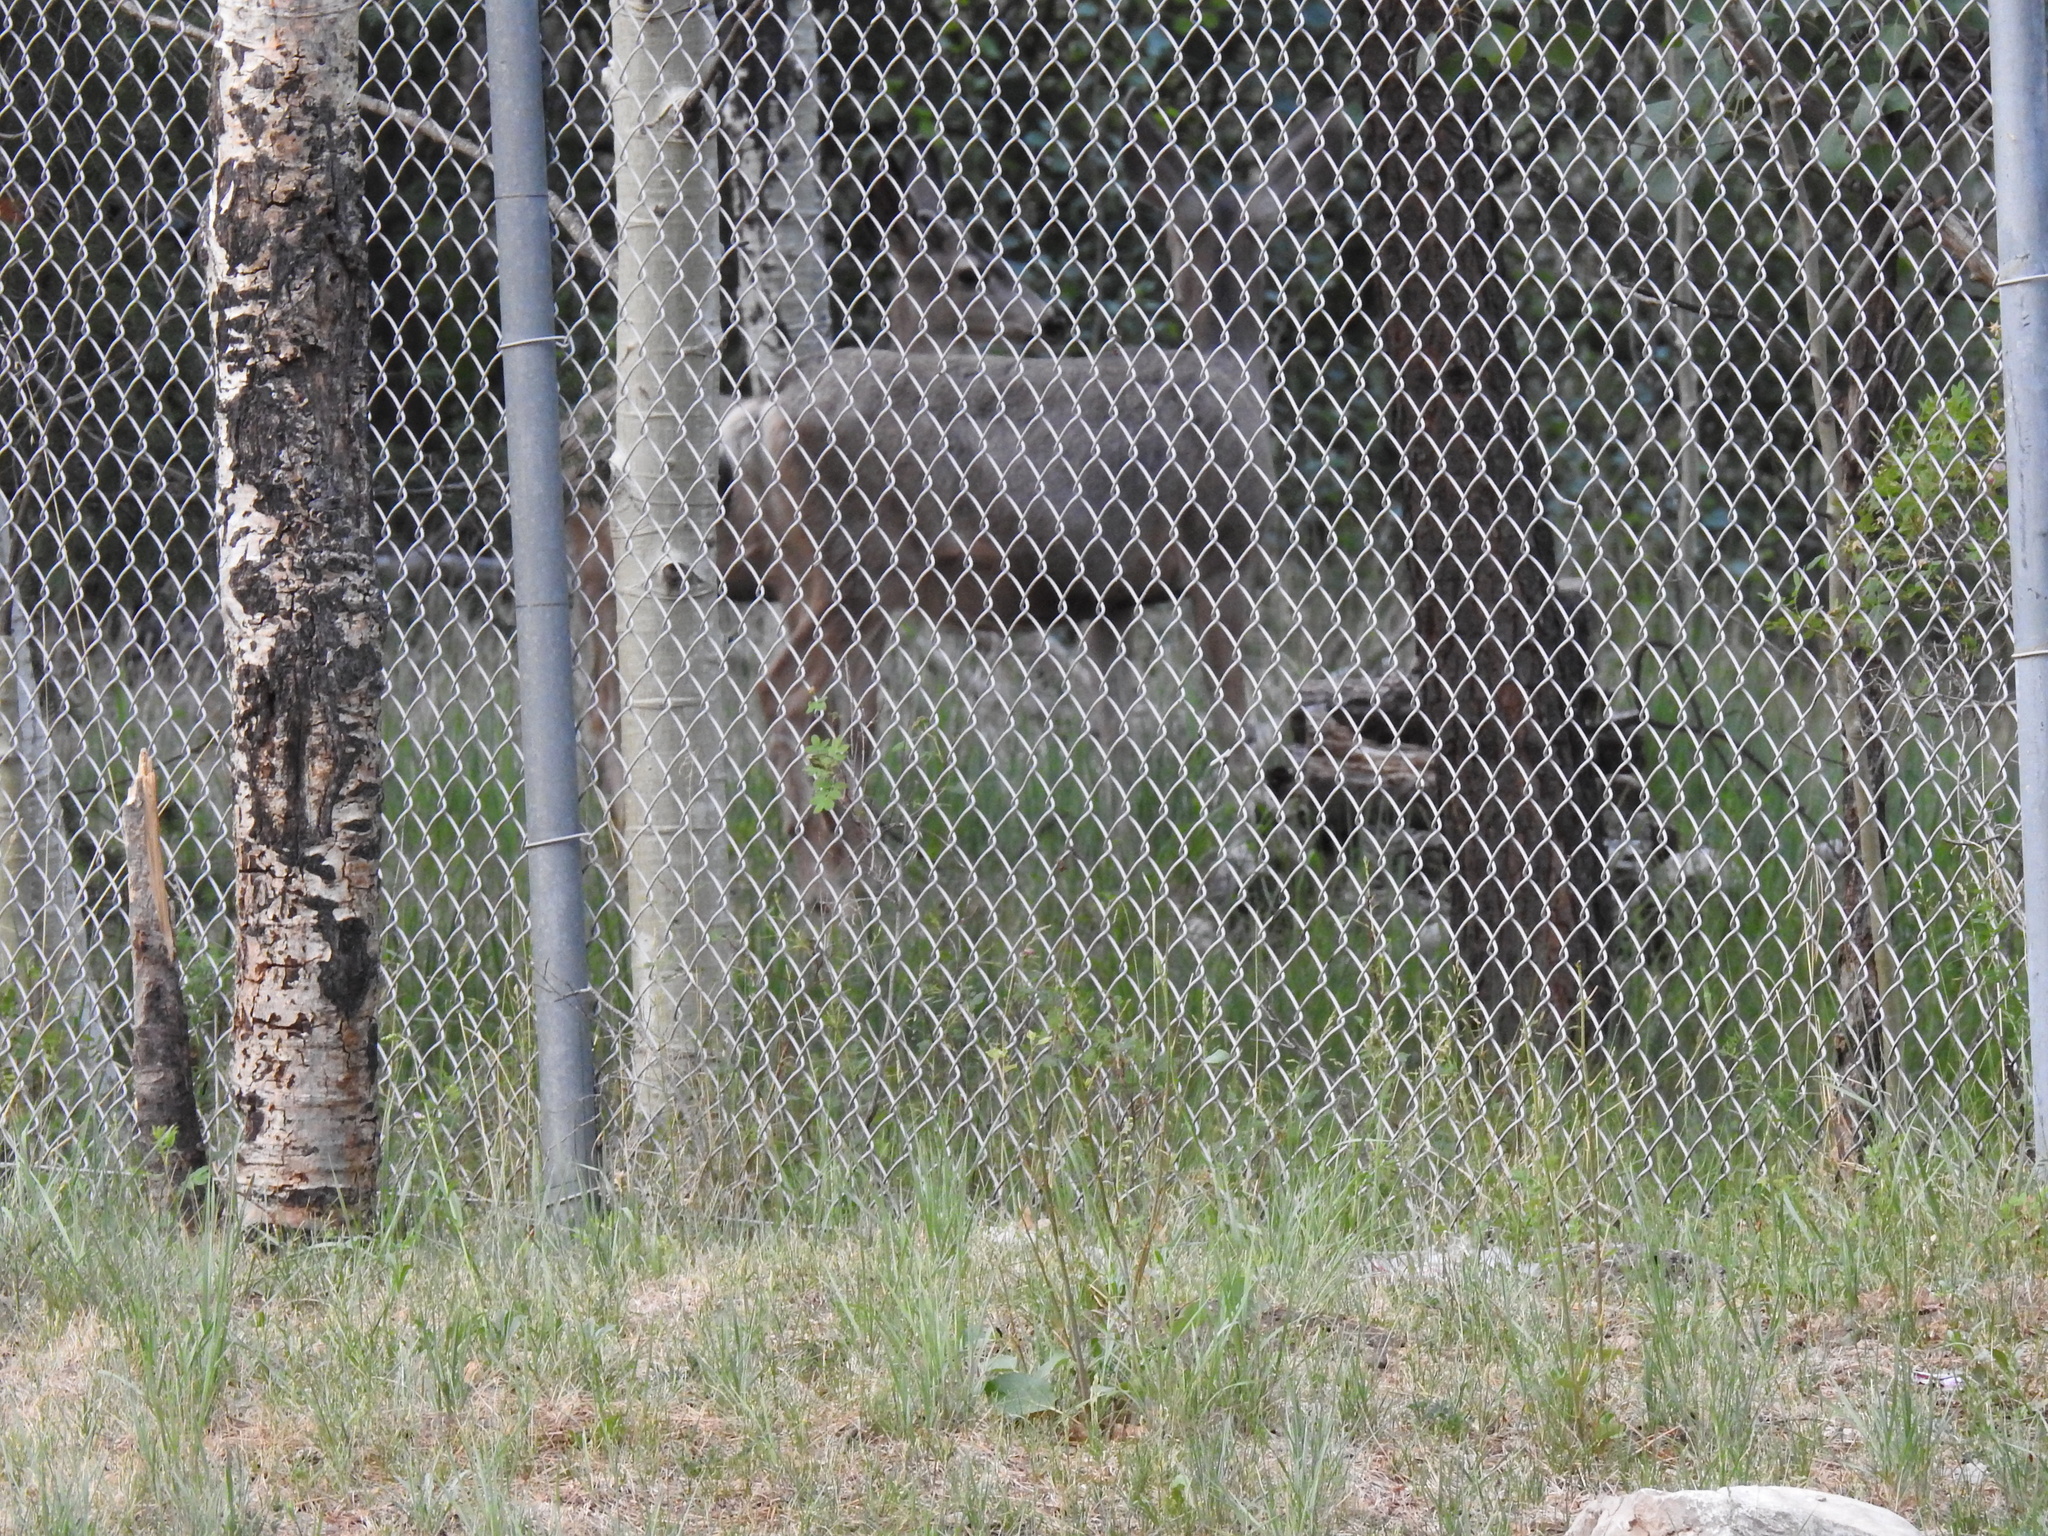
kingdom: Animalia
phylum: Chordata
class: Mammalia
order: Artiodactyla
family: Cervidae
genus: Odocoileus
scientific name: Odocoileus hemionus
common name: Mule deer
